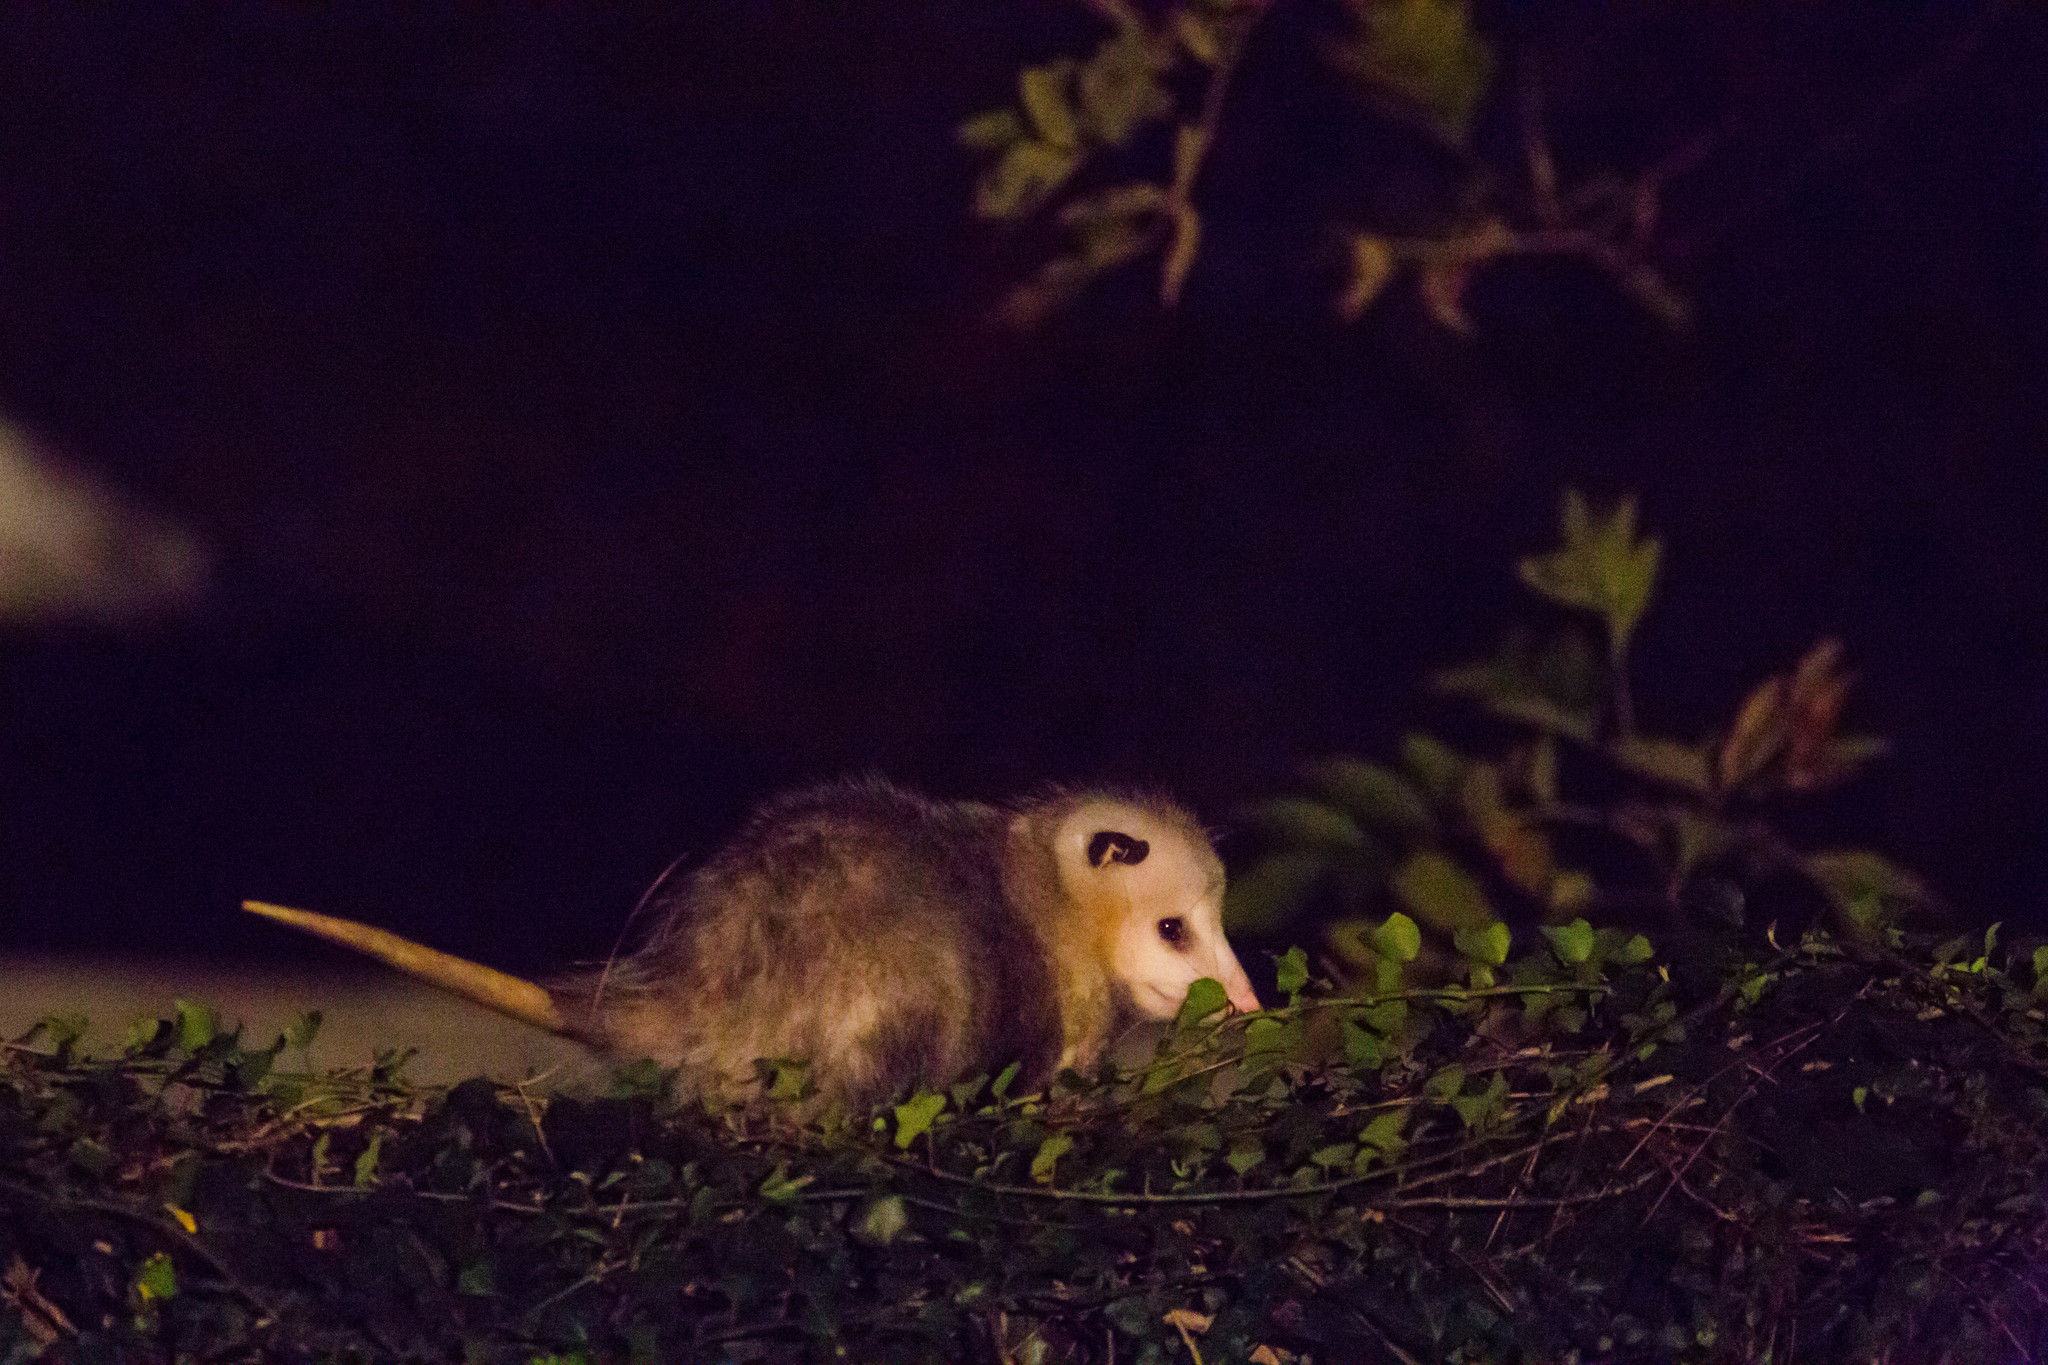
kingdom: Animalia
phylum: Chordata
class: Mammalia
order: Didelphimorphia
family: Didelphidae
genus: Didelphis
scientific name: Didelphis virginiana
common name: Virginia opossum
